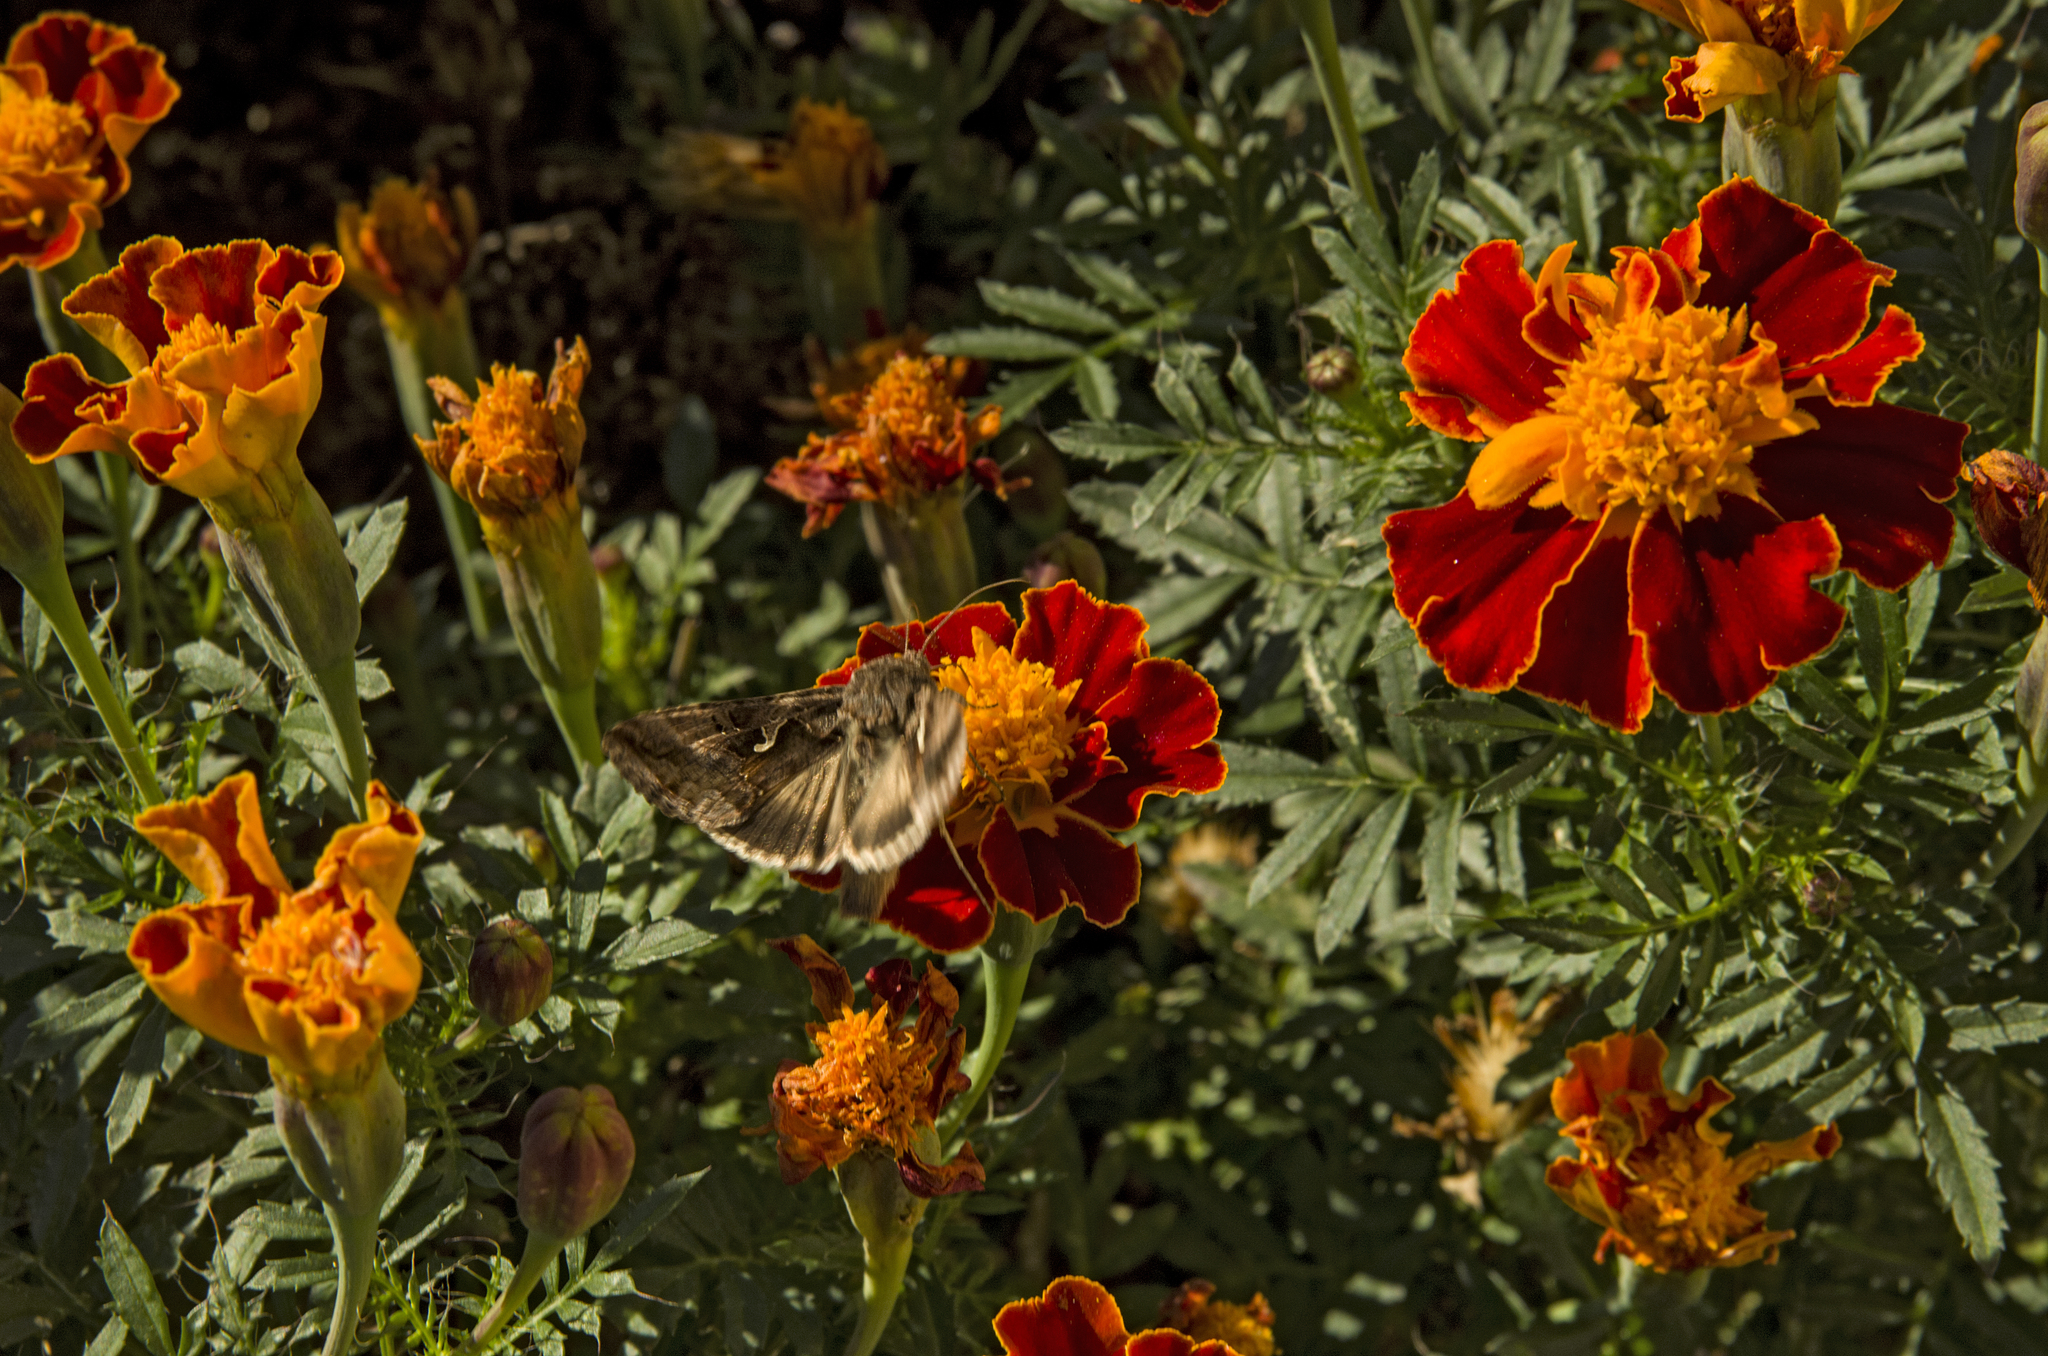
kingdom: Animalia
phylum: Arthropoda
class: Insecta
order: Lepidoptera
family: Noctuidae
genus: Autographa
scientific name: Autographa gamma
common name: Silver y
